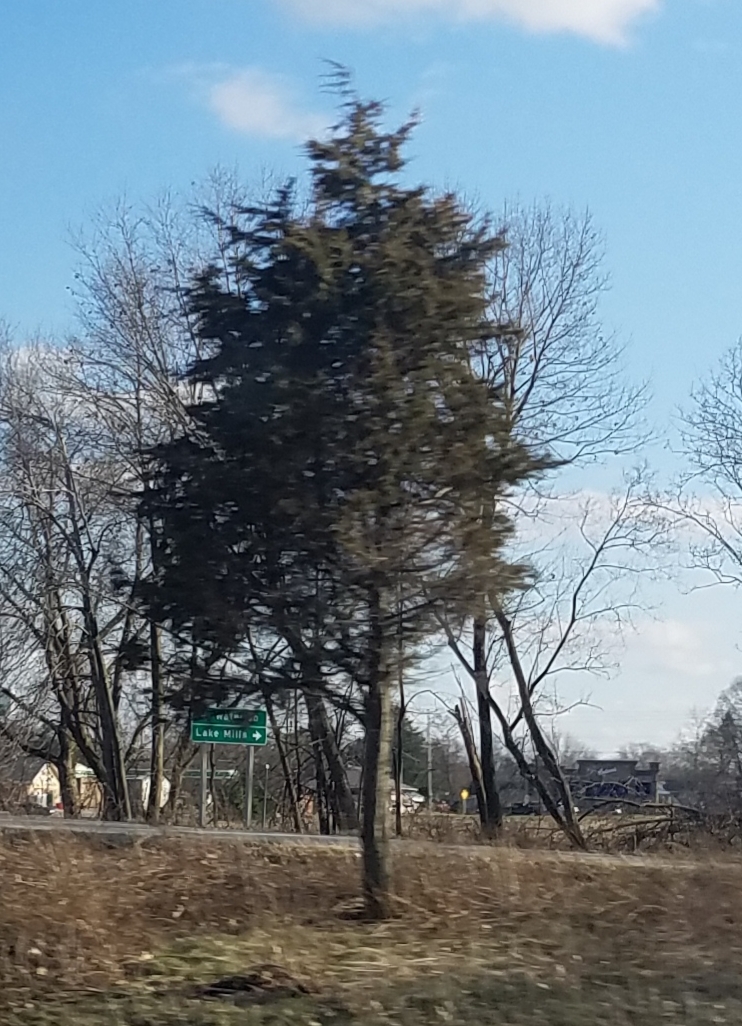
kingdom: Plantae
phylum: Tracheophyta
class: Pinopsida
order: Pinales
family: Cupressaceae
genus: Juniperus
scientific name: Juniperus virginiana
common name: Red juniper
